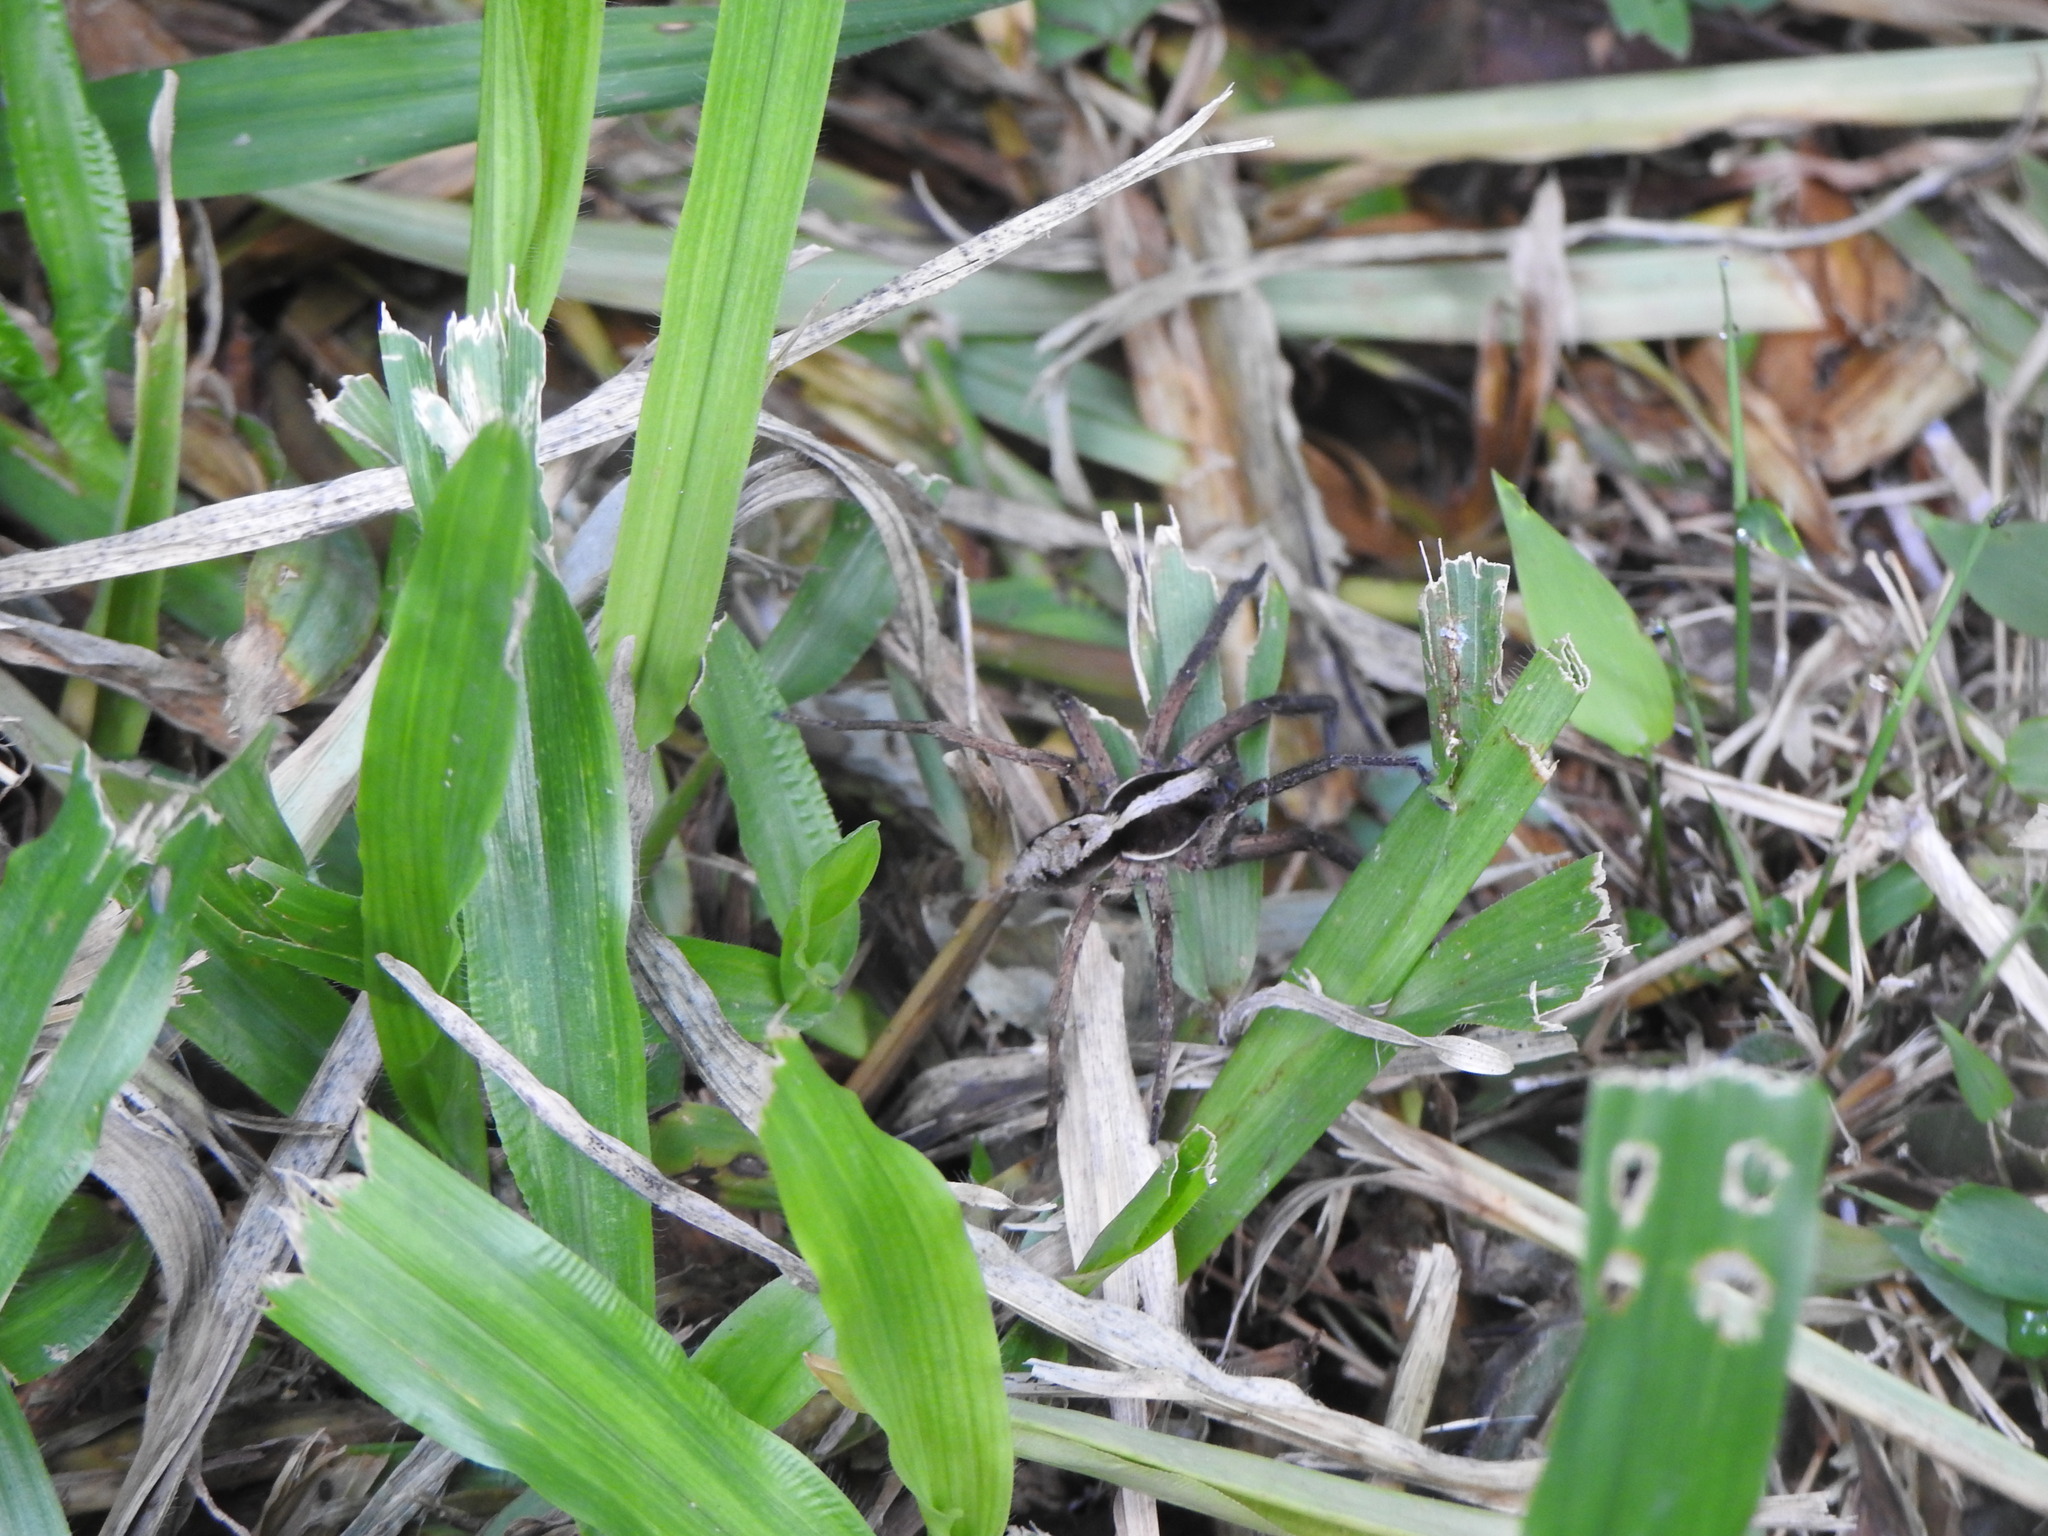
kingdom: Animalia
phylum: Arthropoda
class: Arachnida
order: Araneae
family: Lycosidae
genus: Hogna
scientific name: Hogna gumia
